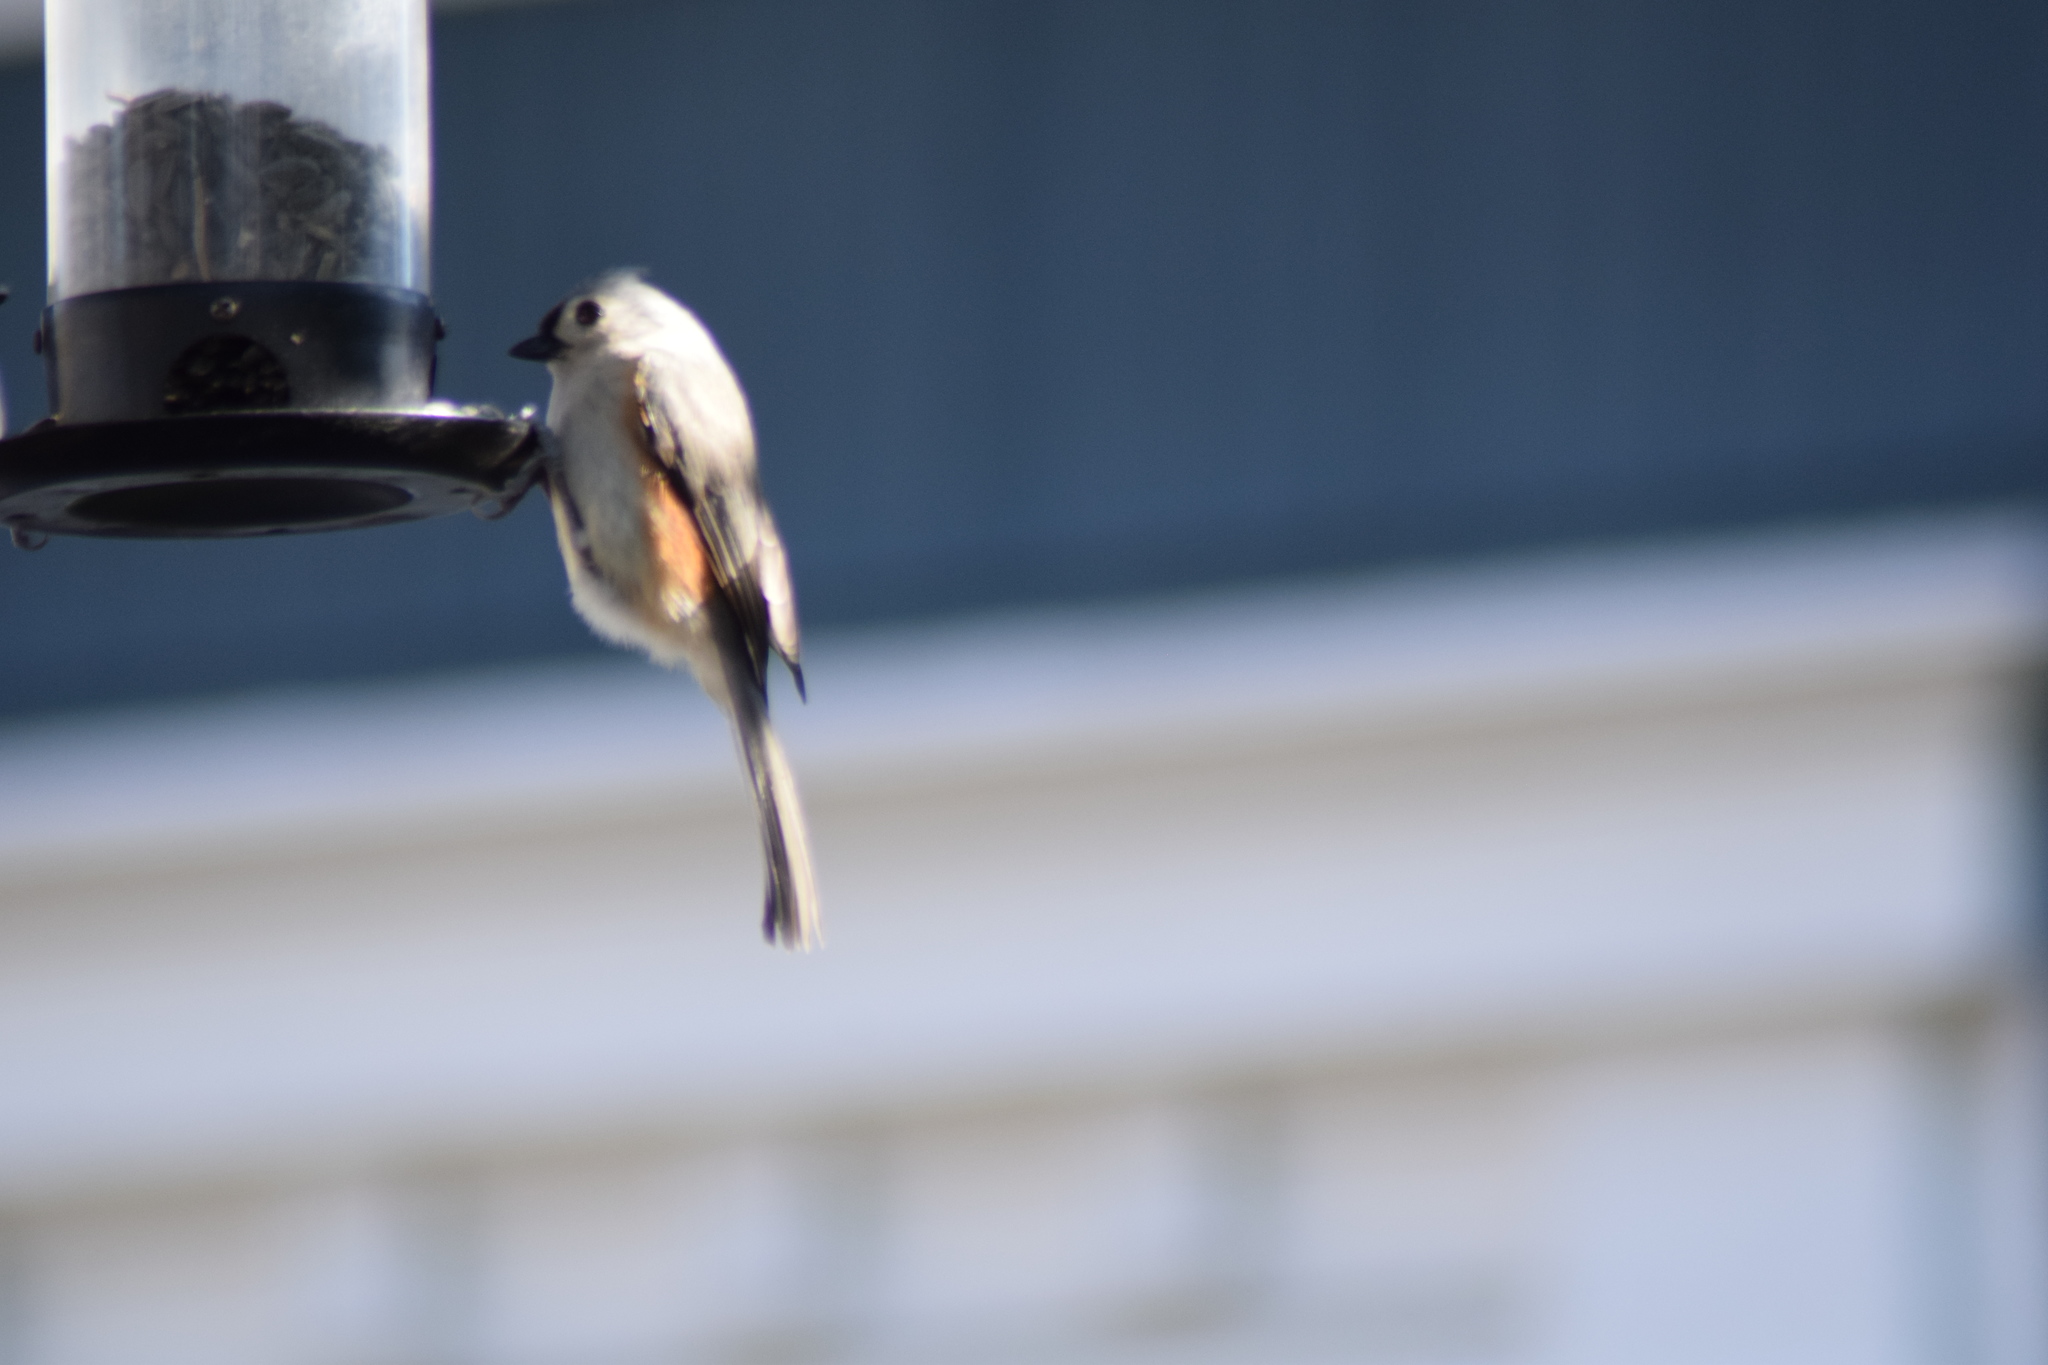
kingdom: Animalia
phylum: Chordata
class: Aves
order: Passeriformes
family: Paridae
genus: Baeolophus
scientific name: Baeolophus bicolor
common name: Tufted titmouse
